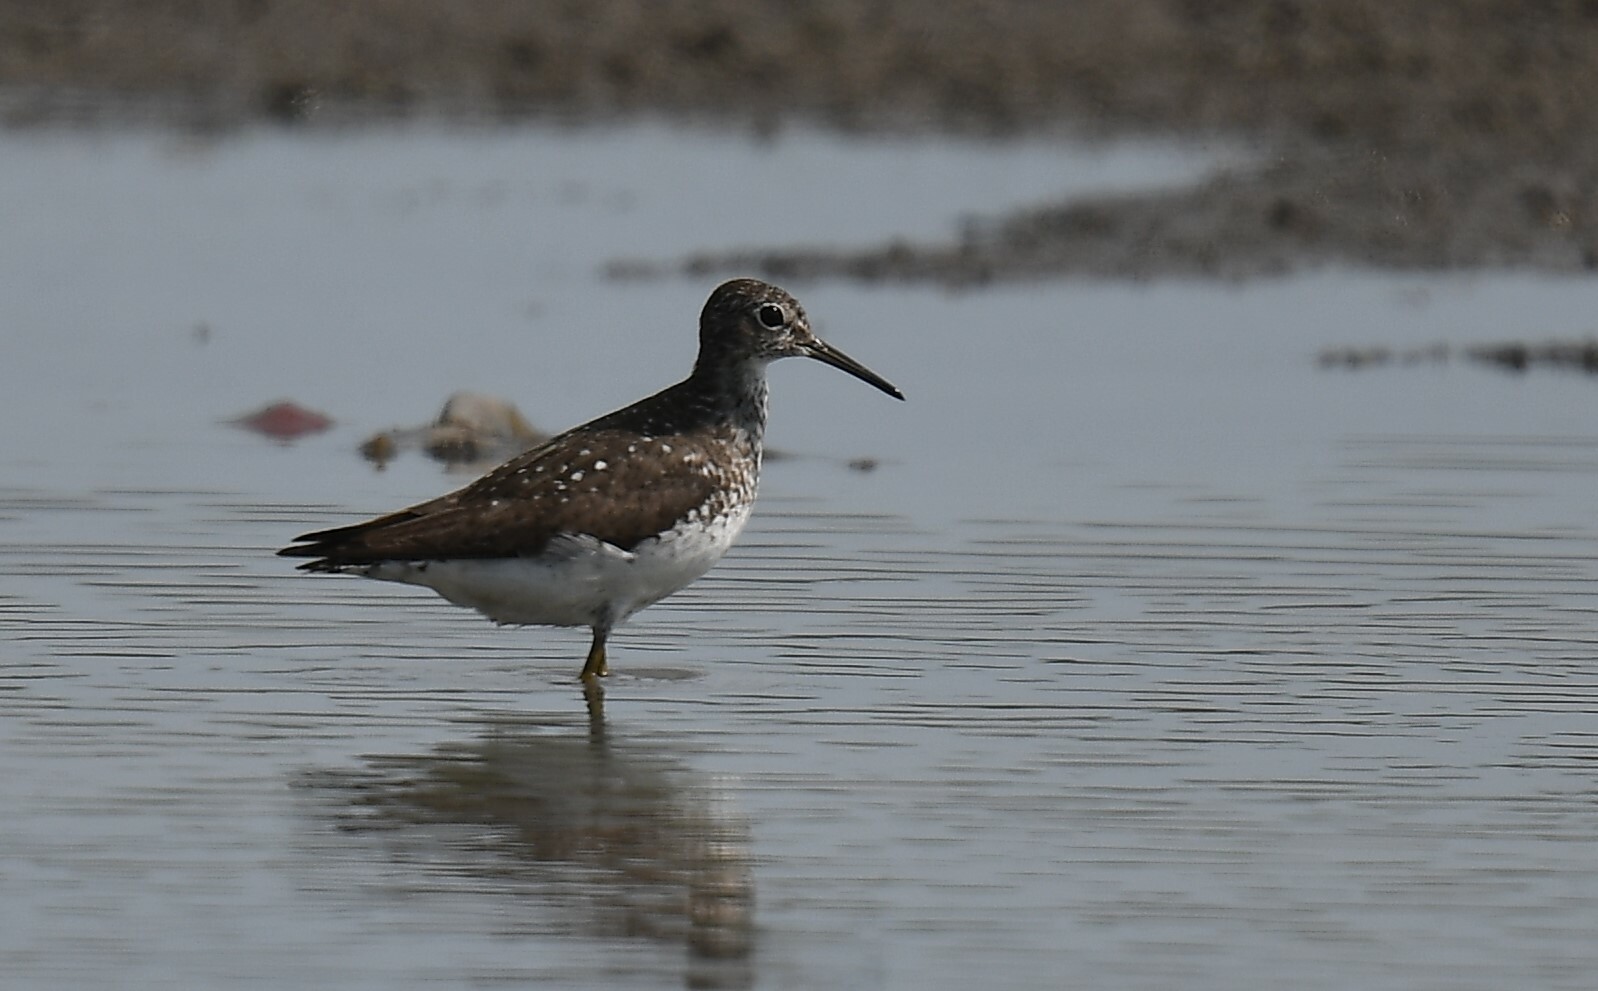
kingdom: Animalia
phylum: Chordata
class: Aves
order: Charadriiformes
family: Scolopacidae
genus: Tringa
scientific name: Tringa solitaria
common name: Solitary sandpiper
